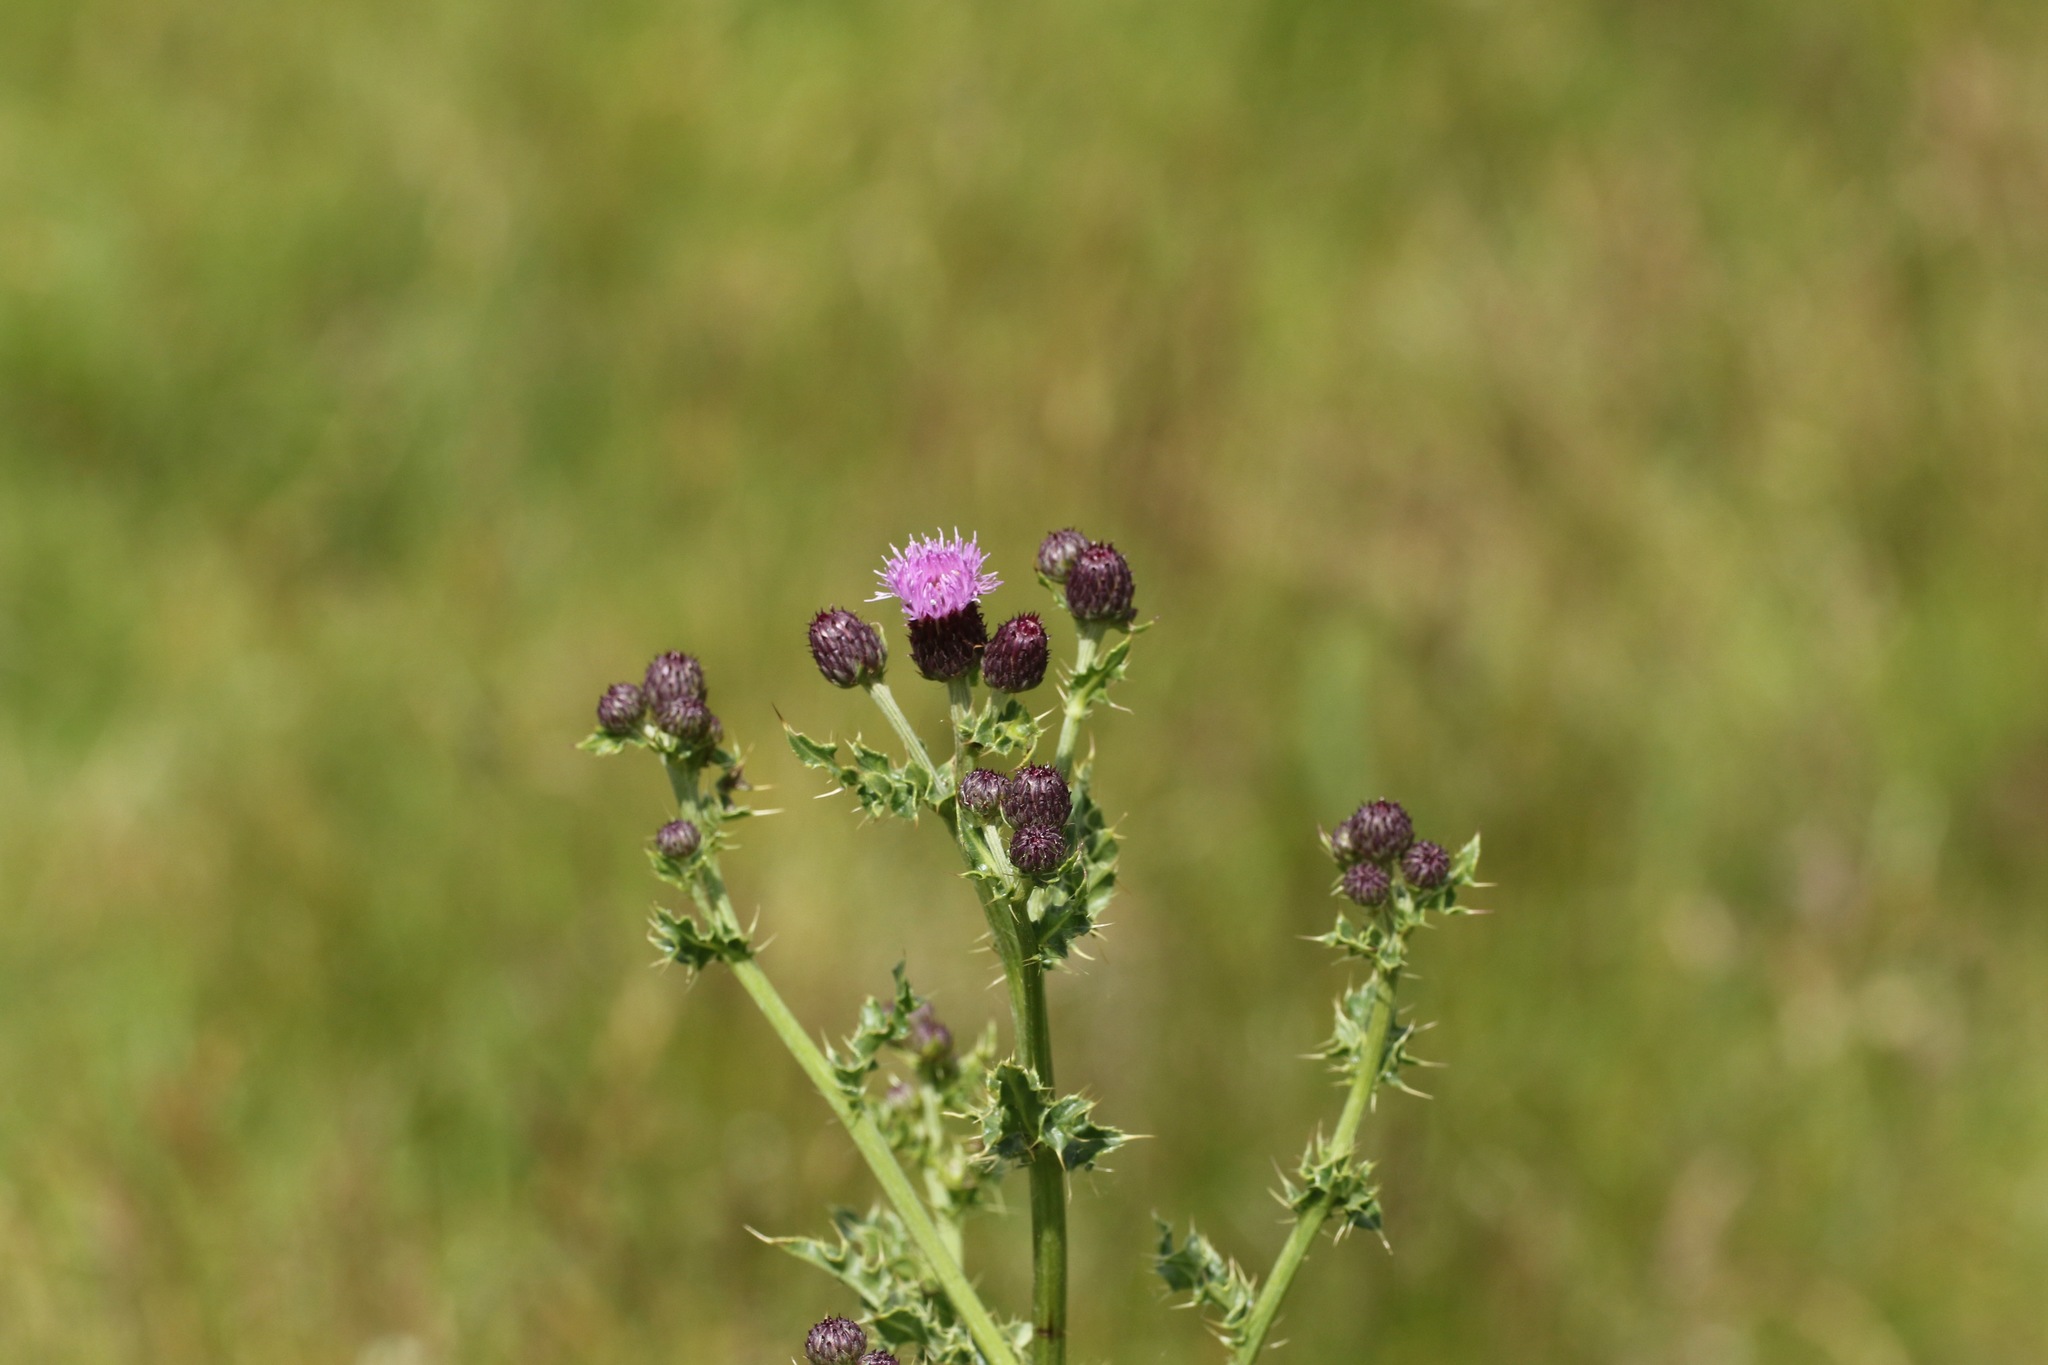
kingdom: Plantae
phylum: Tracheophyta
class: Magnoliopsida
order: Asterales
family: Asteraceae
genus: Cirsium
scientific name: Cirsium arvense
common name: Creeping thistle
